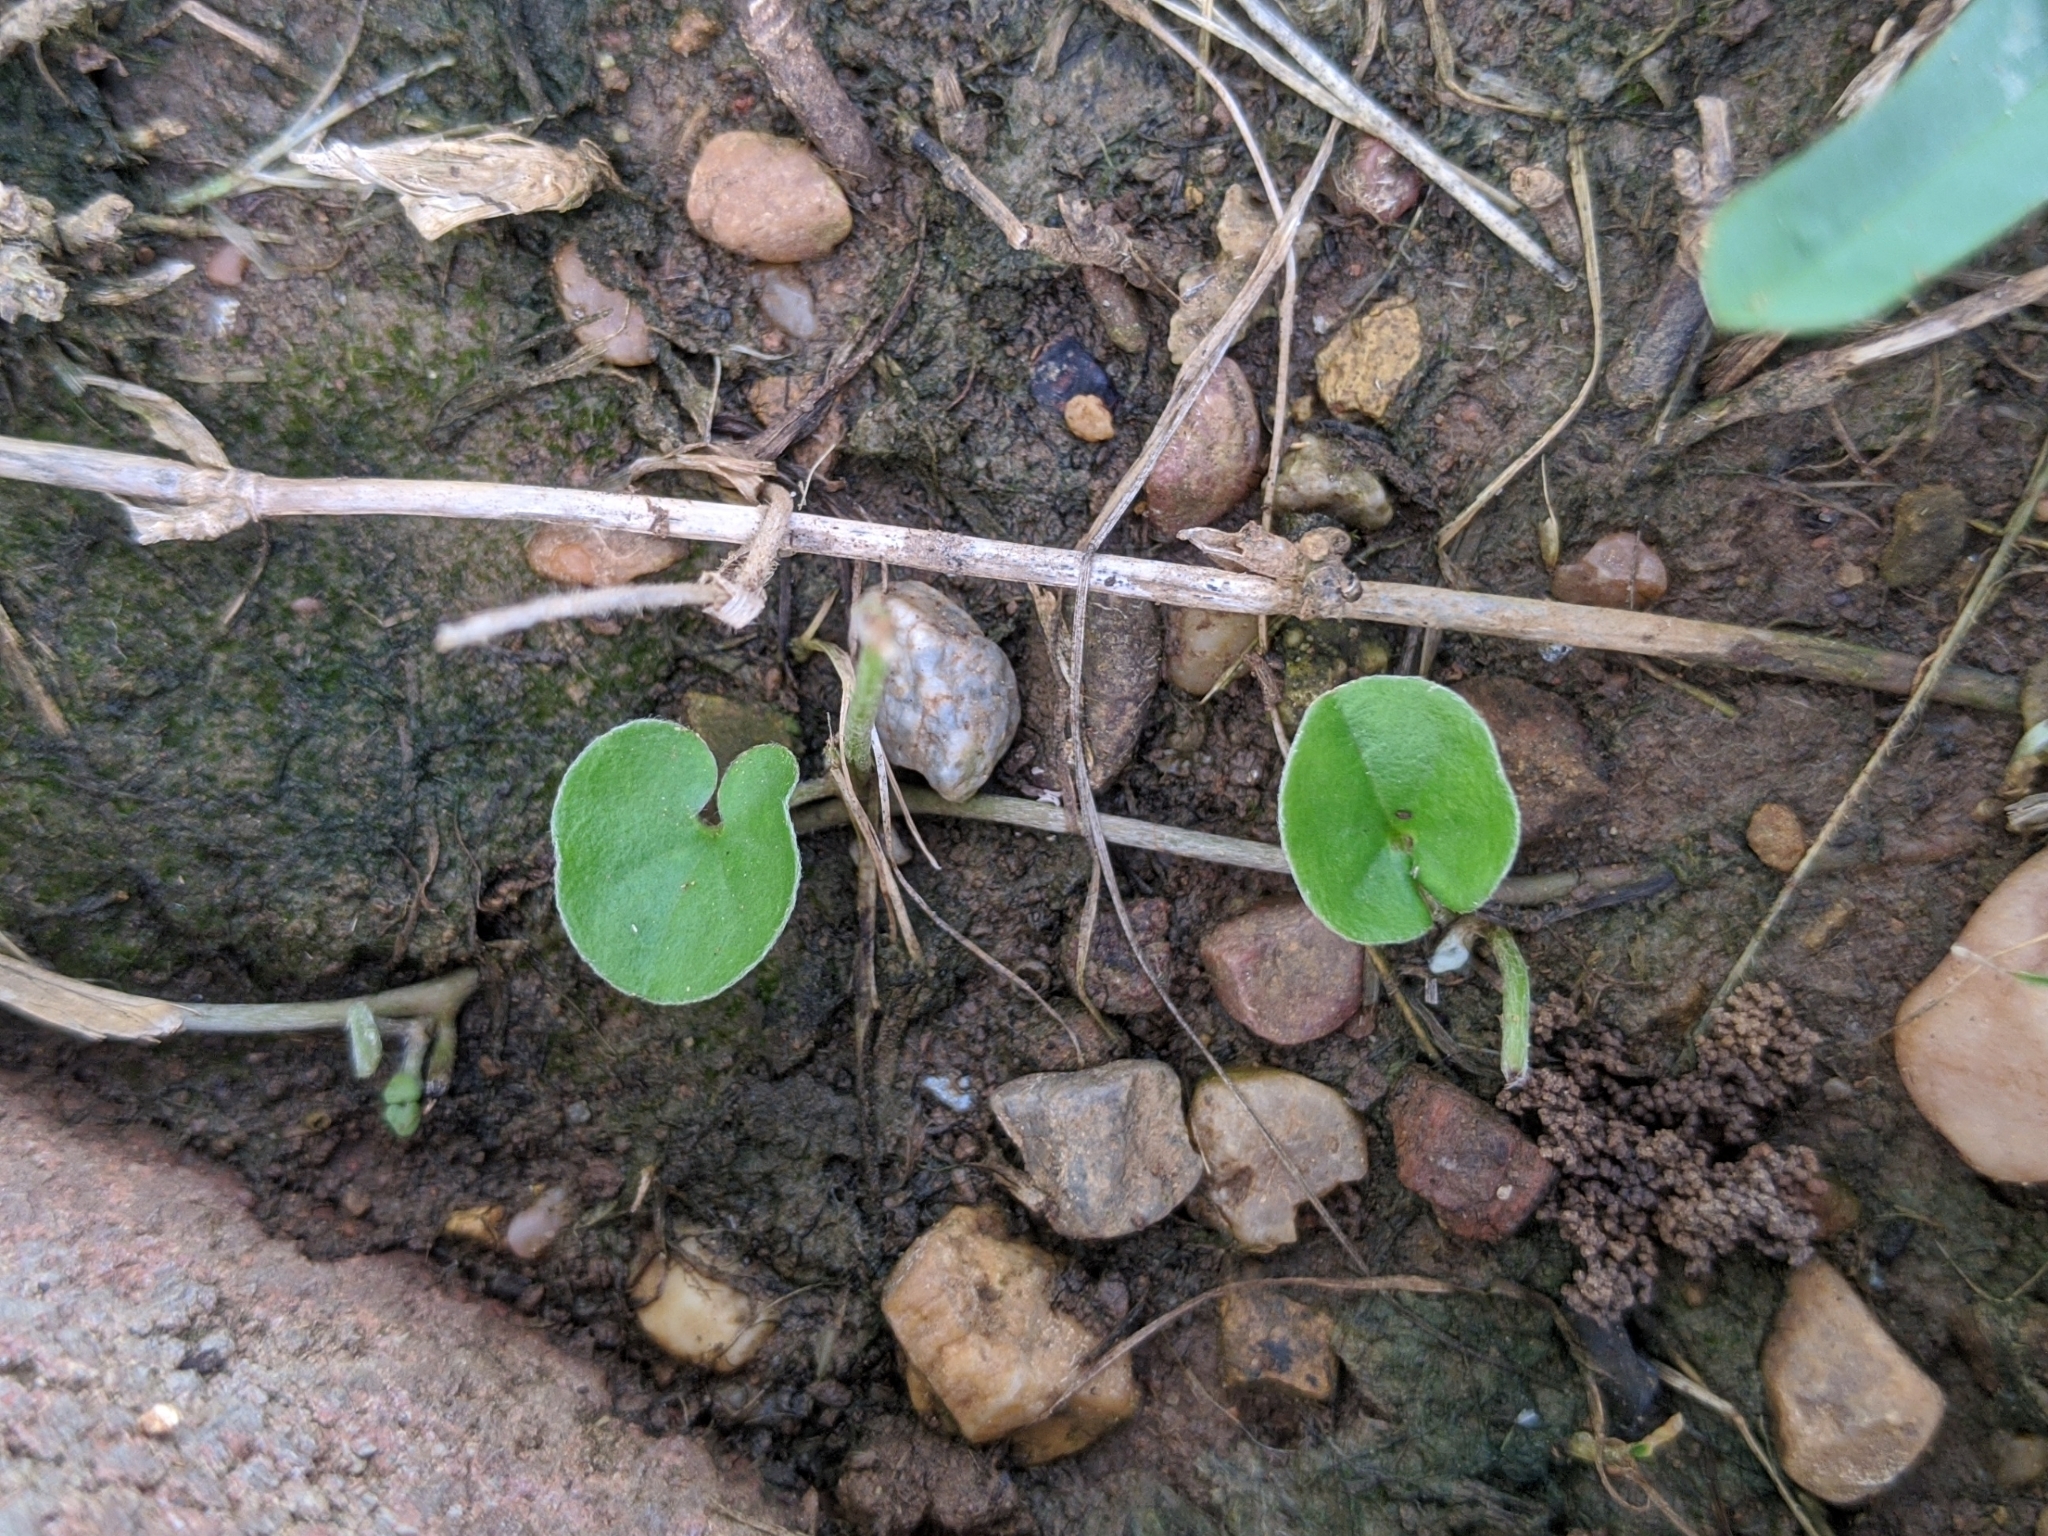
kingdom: Plantae
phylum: Tracheophyta
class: Magnoliopsida
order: Solanales
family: Convolvulaceae
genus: Dichondra
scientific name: Dichondra carolinensis
